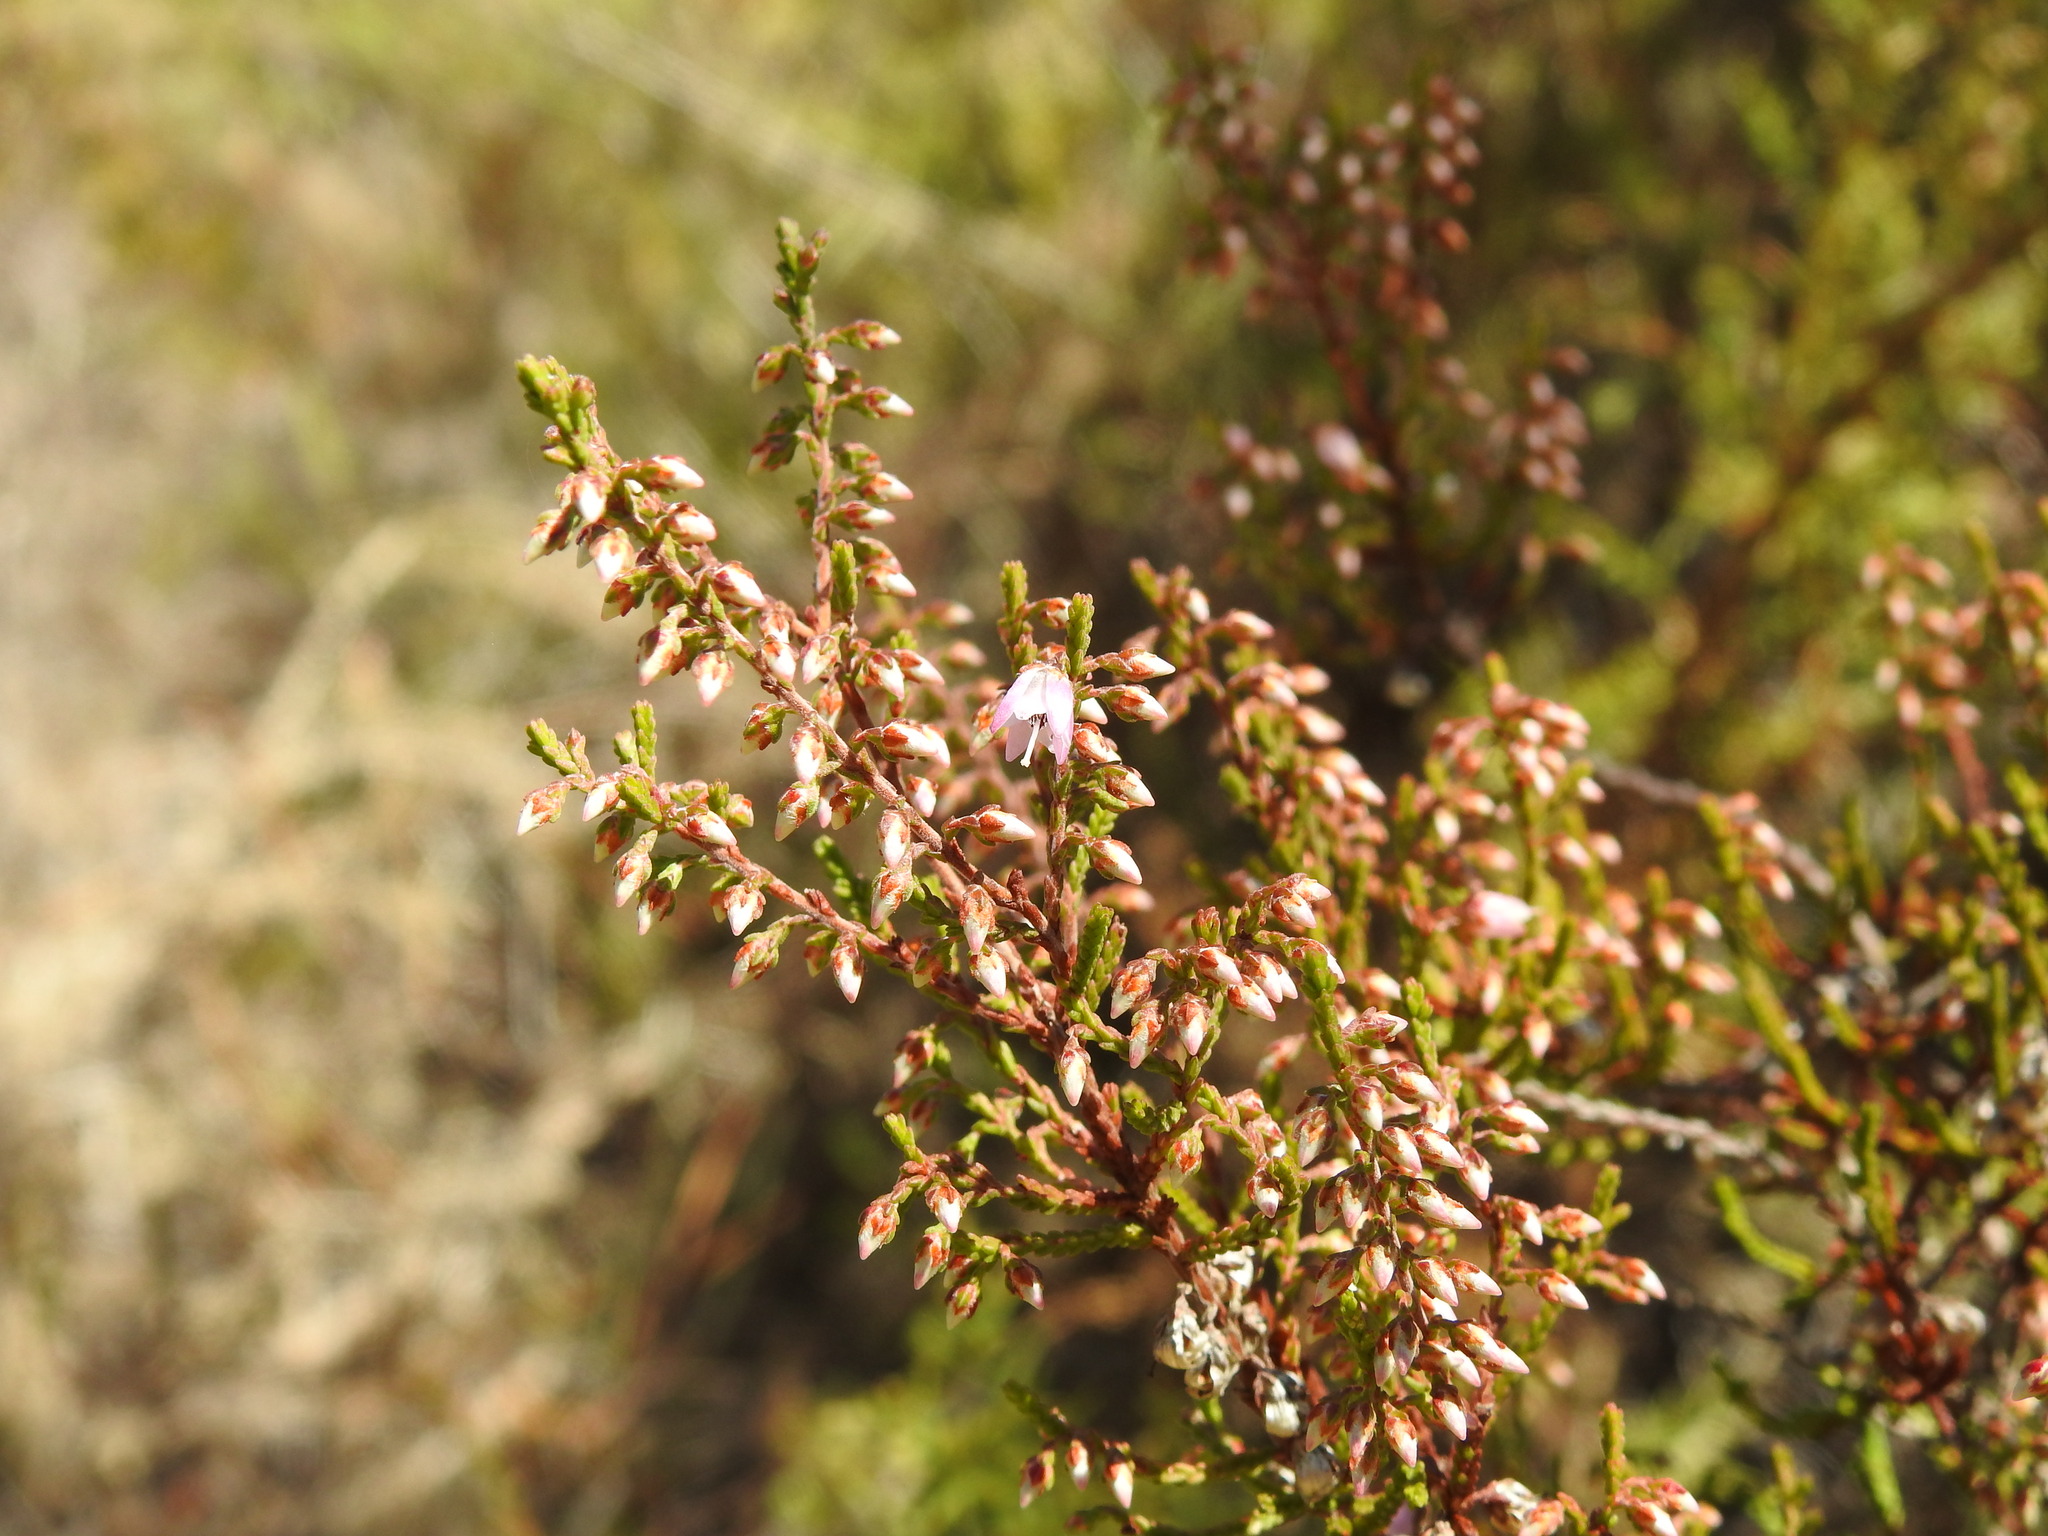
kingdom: Plantae
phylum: Tracheophyta
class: Magnoliopsida
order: Ericales
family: Ericaceae
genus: Calluna
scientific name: Calluna vulgaris
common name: Heather
